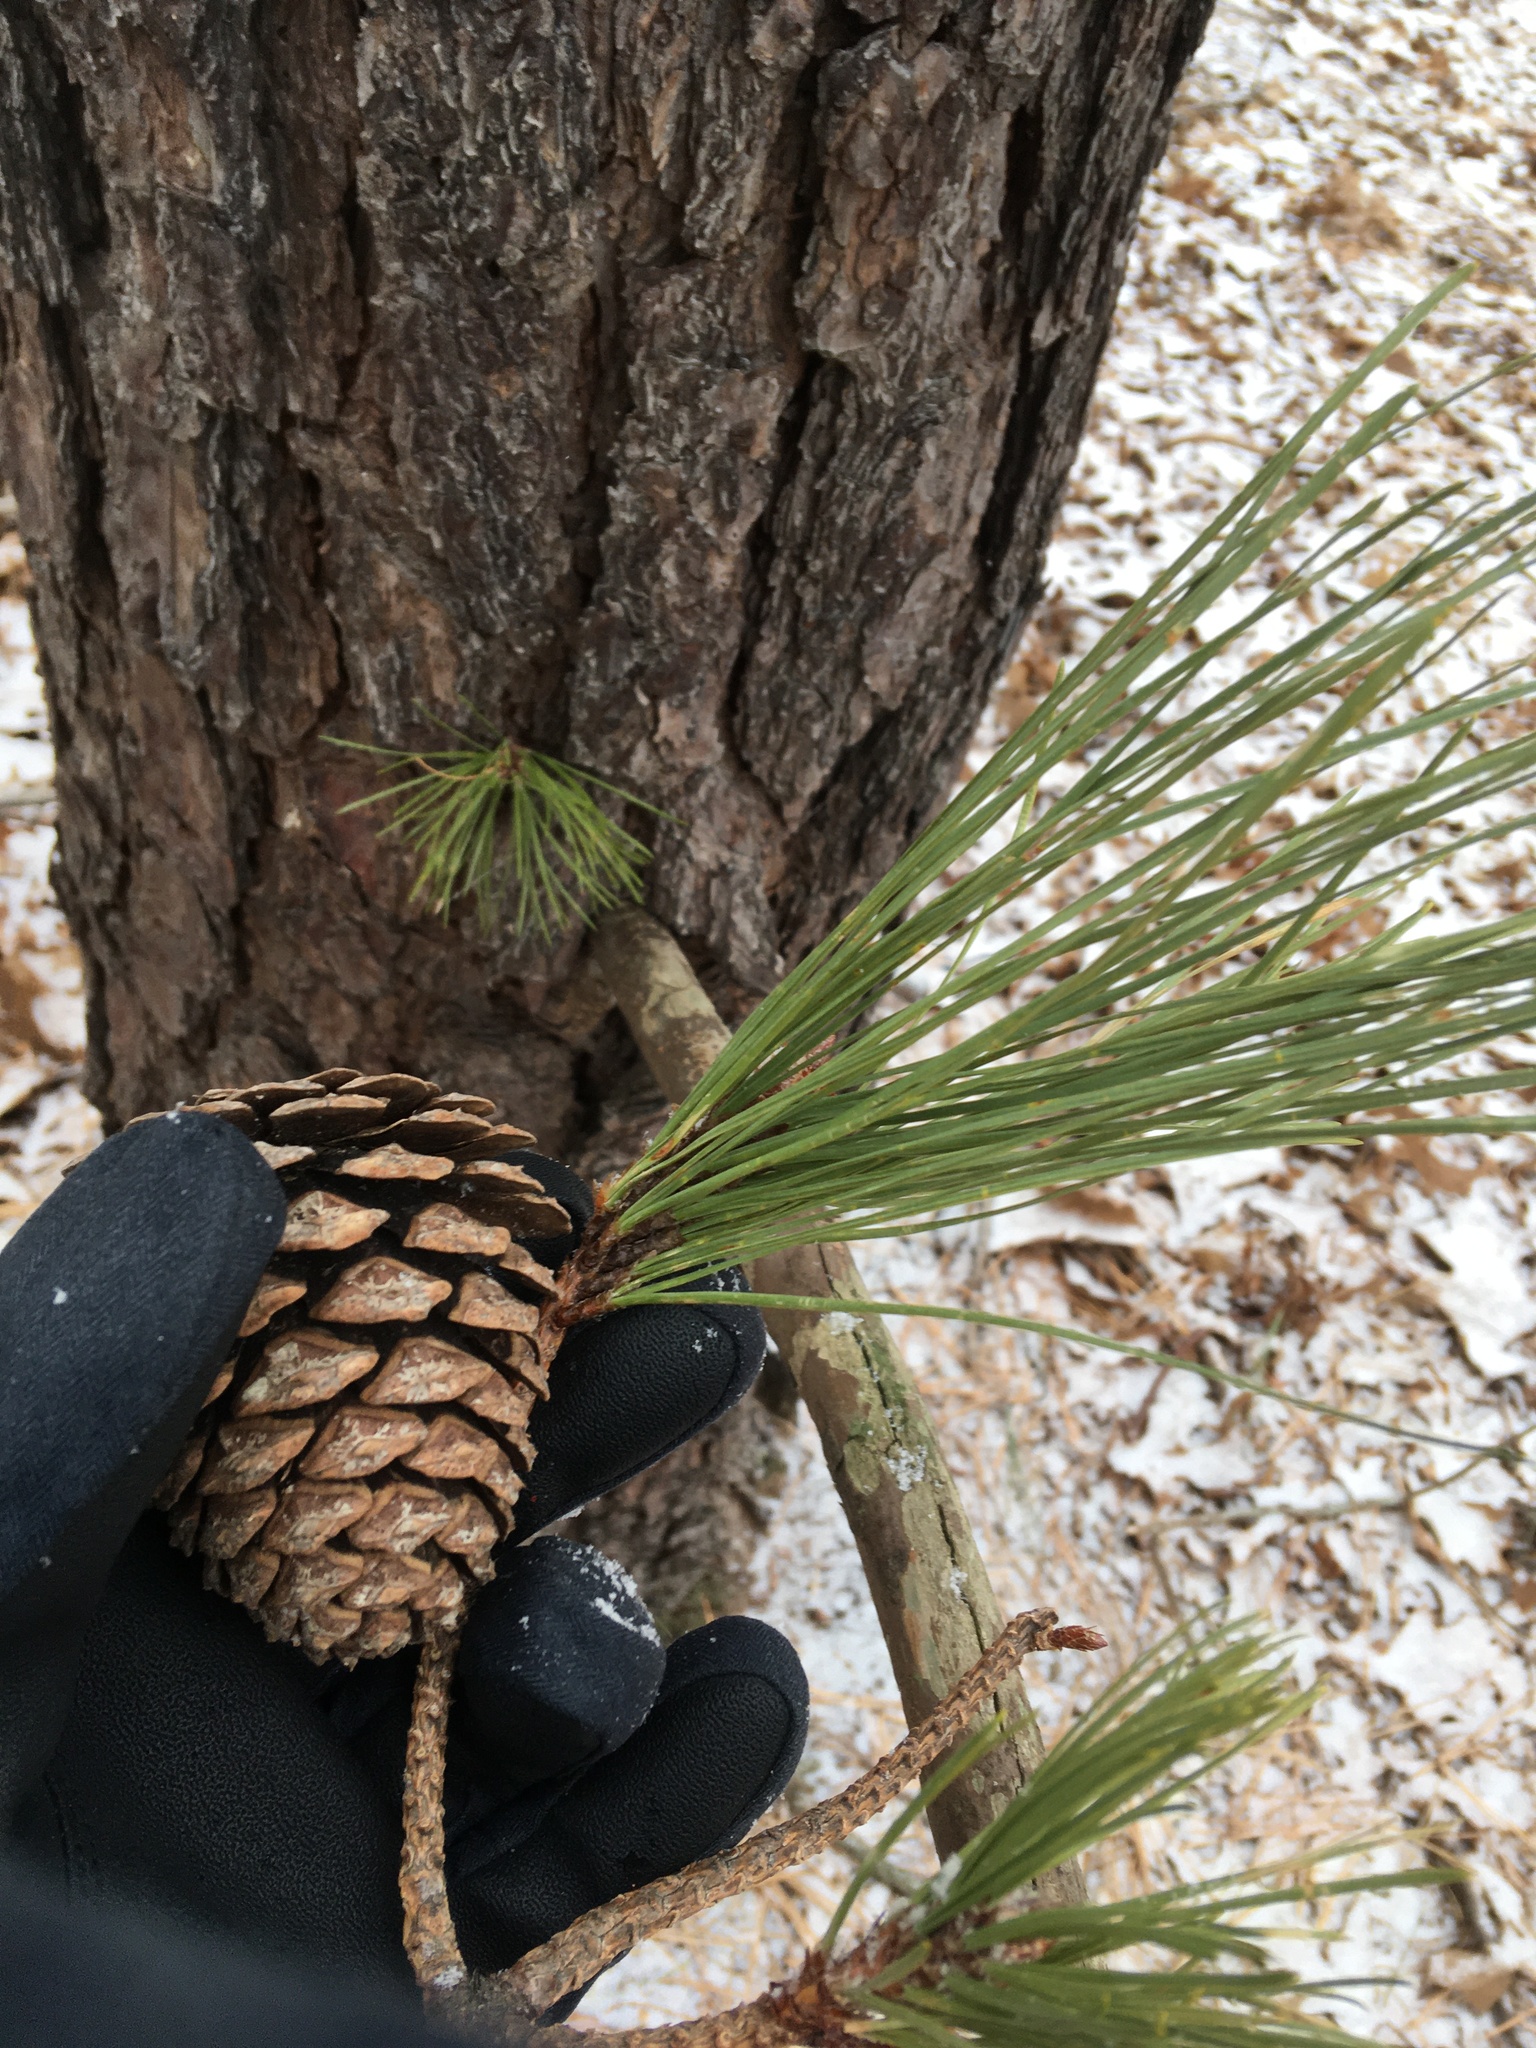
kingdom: Plantae
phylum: Tracheophyta
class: Pinopsida
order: Pinales
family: Pinaceae
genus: Pinus
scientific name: Pinus rigida
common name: Pitch pine
